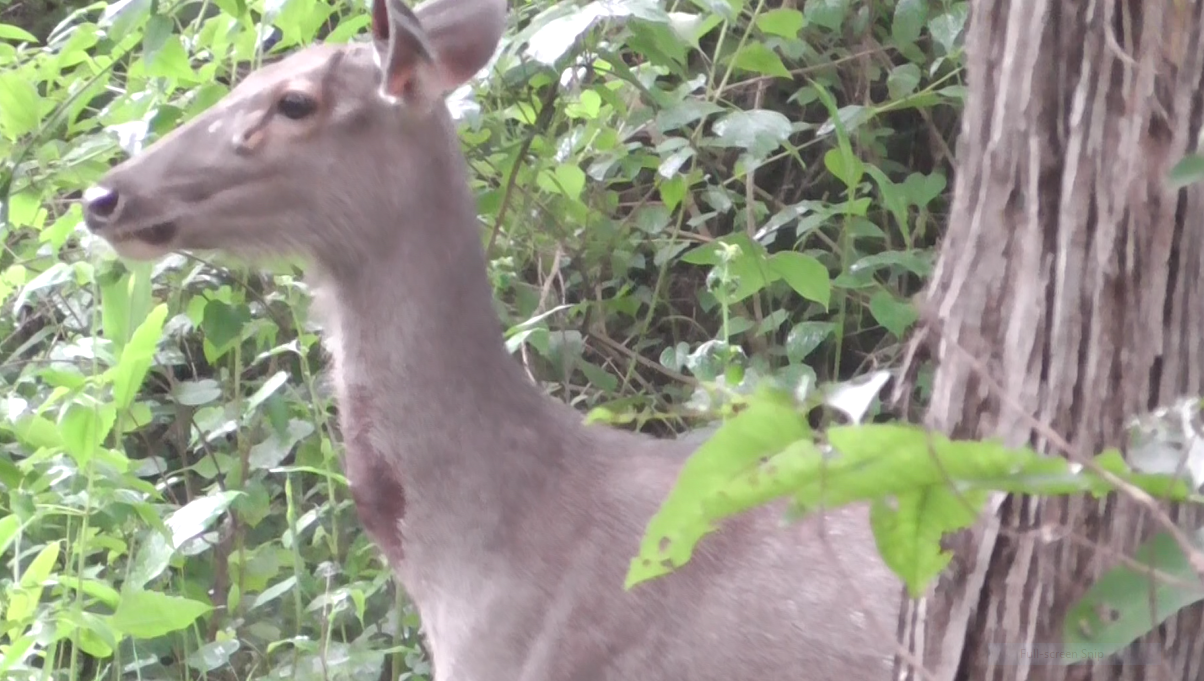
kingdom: Animalia
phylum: Chordata
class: Mammalia
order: Artiodactyla
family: Cervidae
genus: Rusa
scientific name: Rusa unicolor
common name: Sambar
